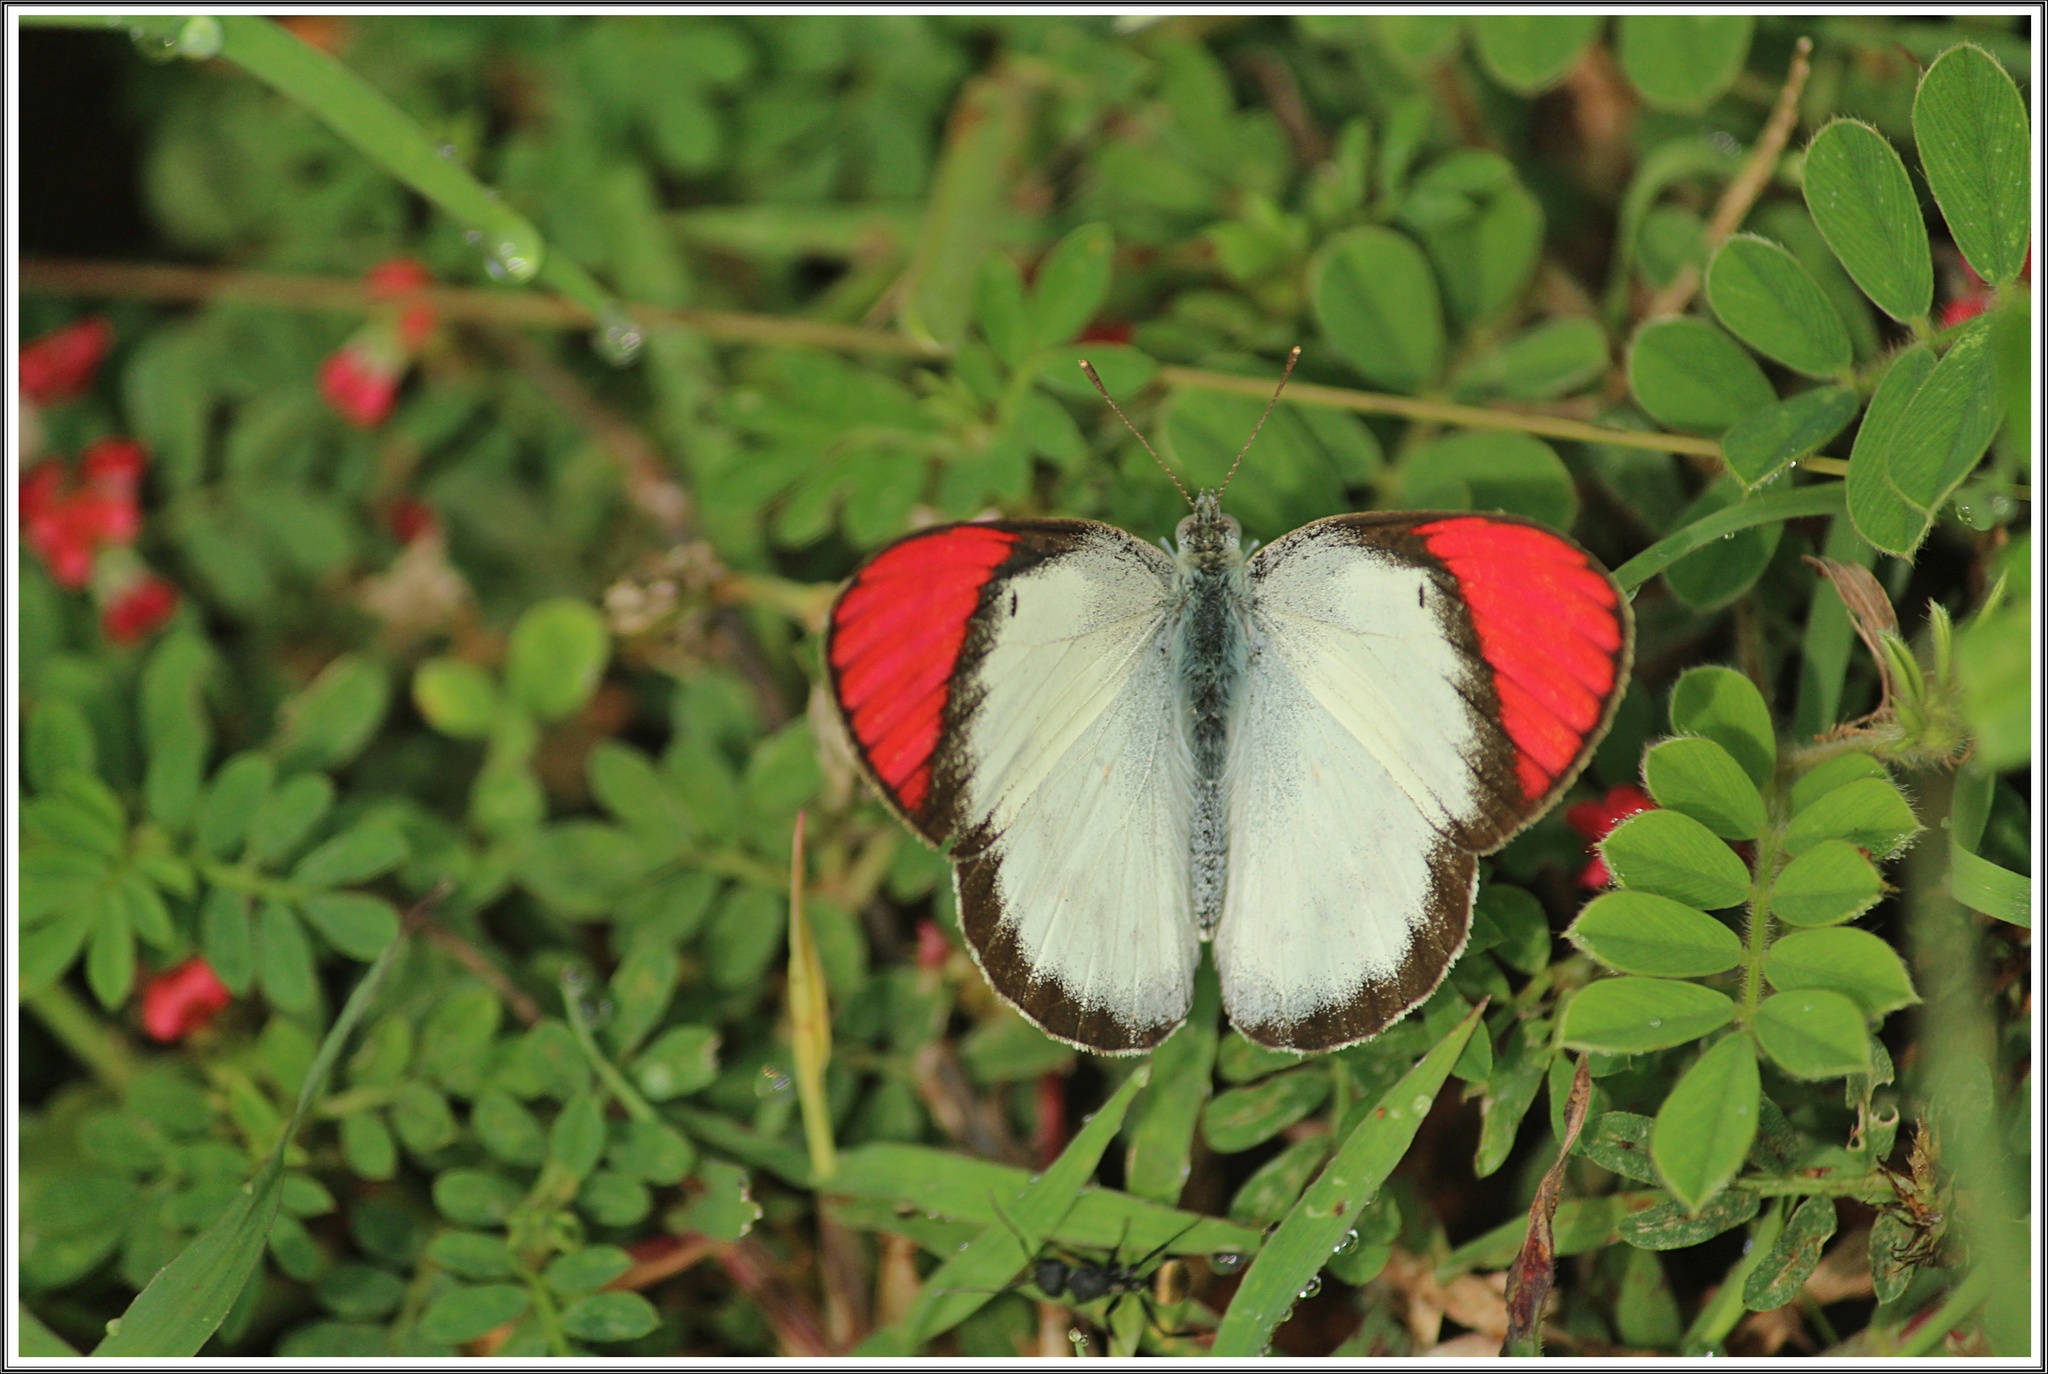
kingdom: Animalia
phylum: Arthropoda
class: Insecta
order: Lepidoptera
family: Pieridae
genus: Colotis
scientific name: Colotis danae
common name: Crimson tip
